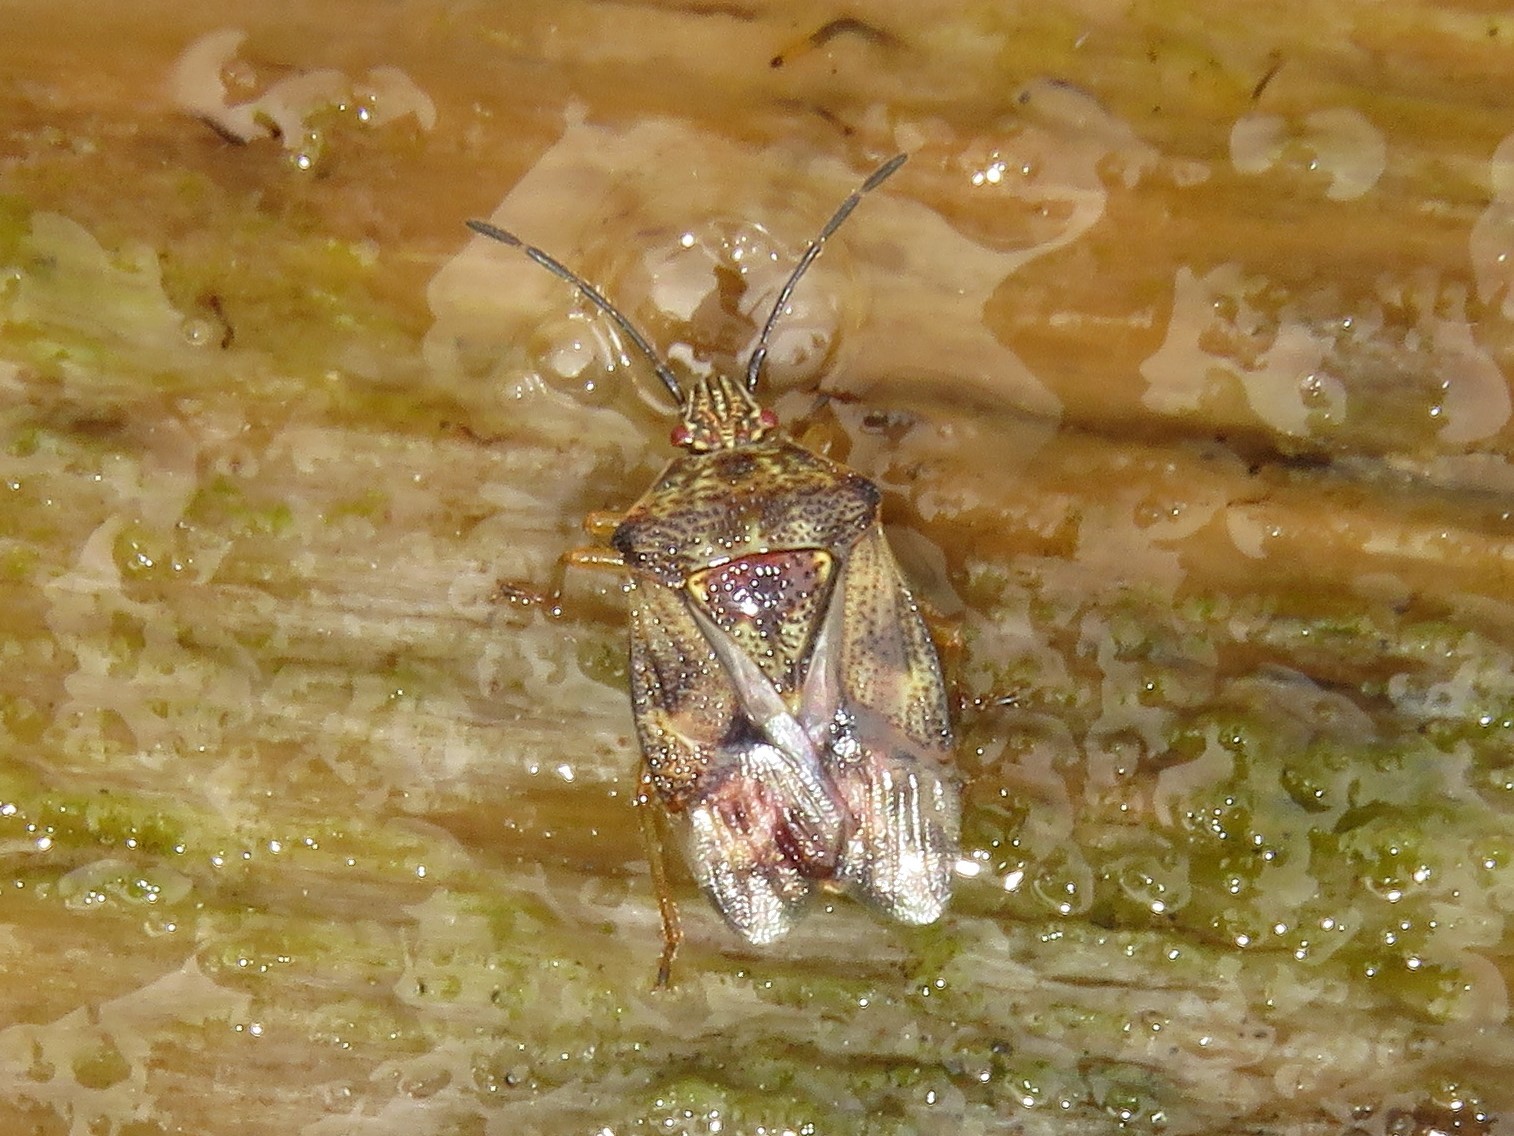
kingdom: Animalia
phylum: Arthropoda
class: Insecta
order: Hemiptera
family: Acanthosomatidae
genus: Elasmucha
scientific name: Elasmucha lateralis
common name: Shield bug
